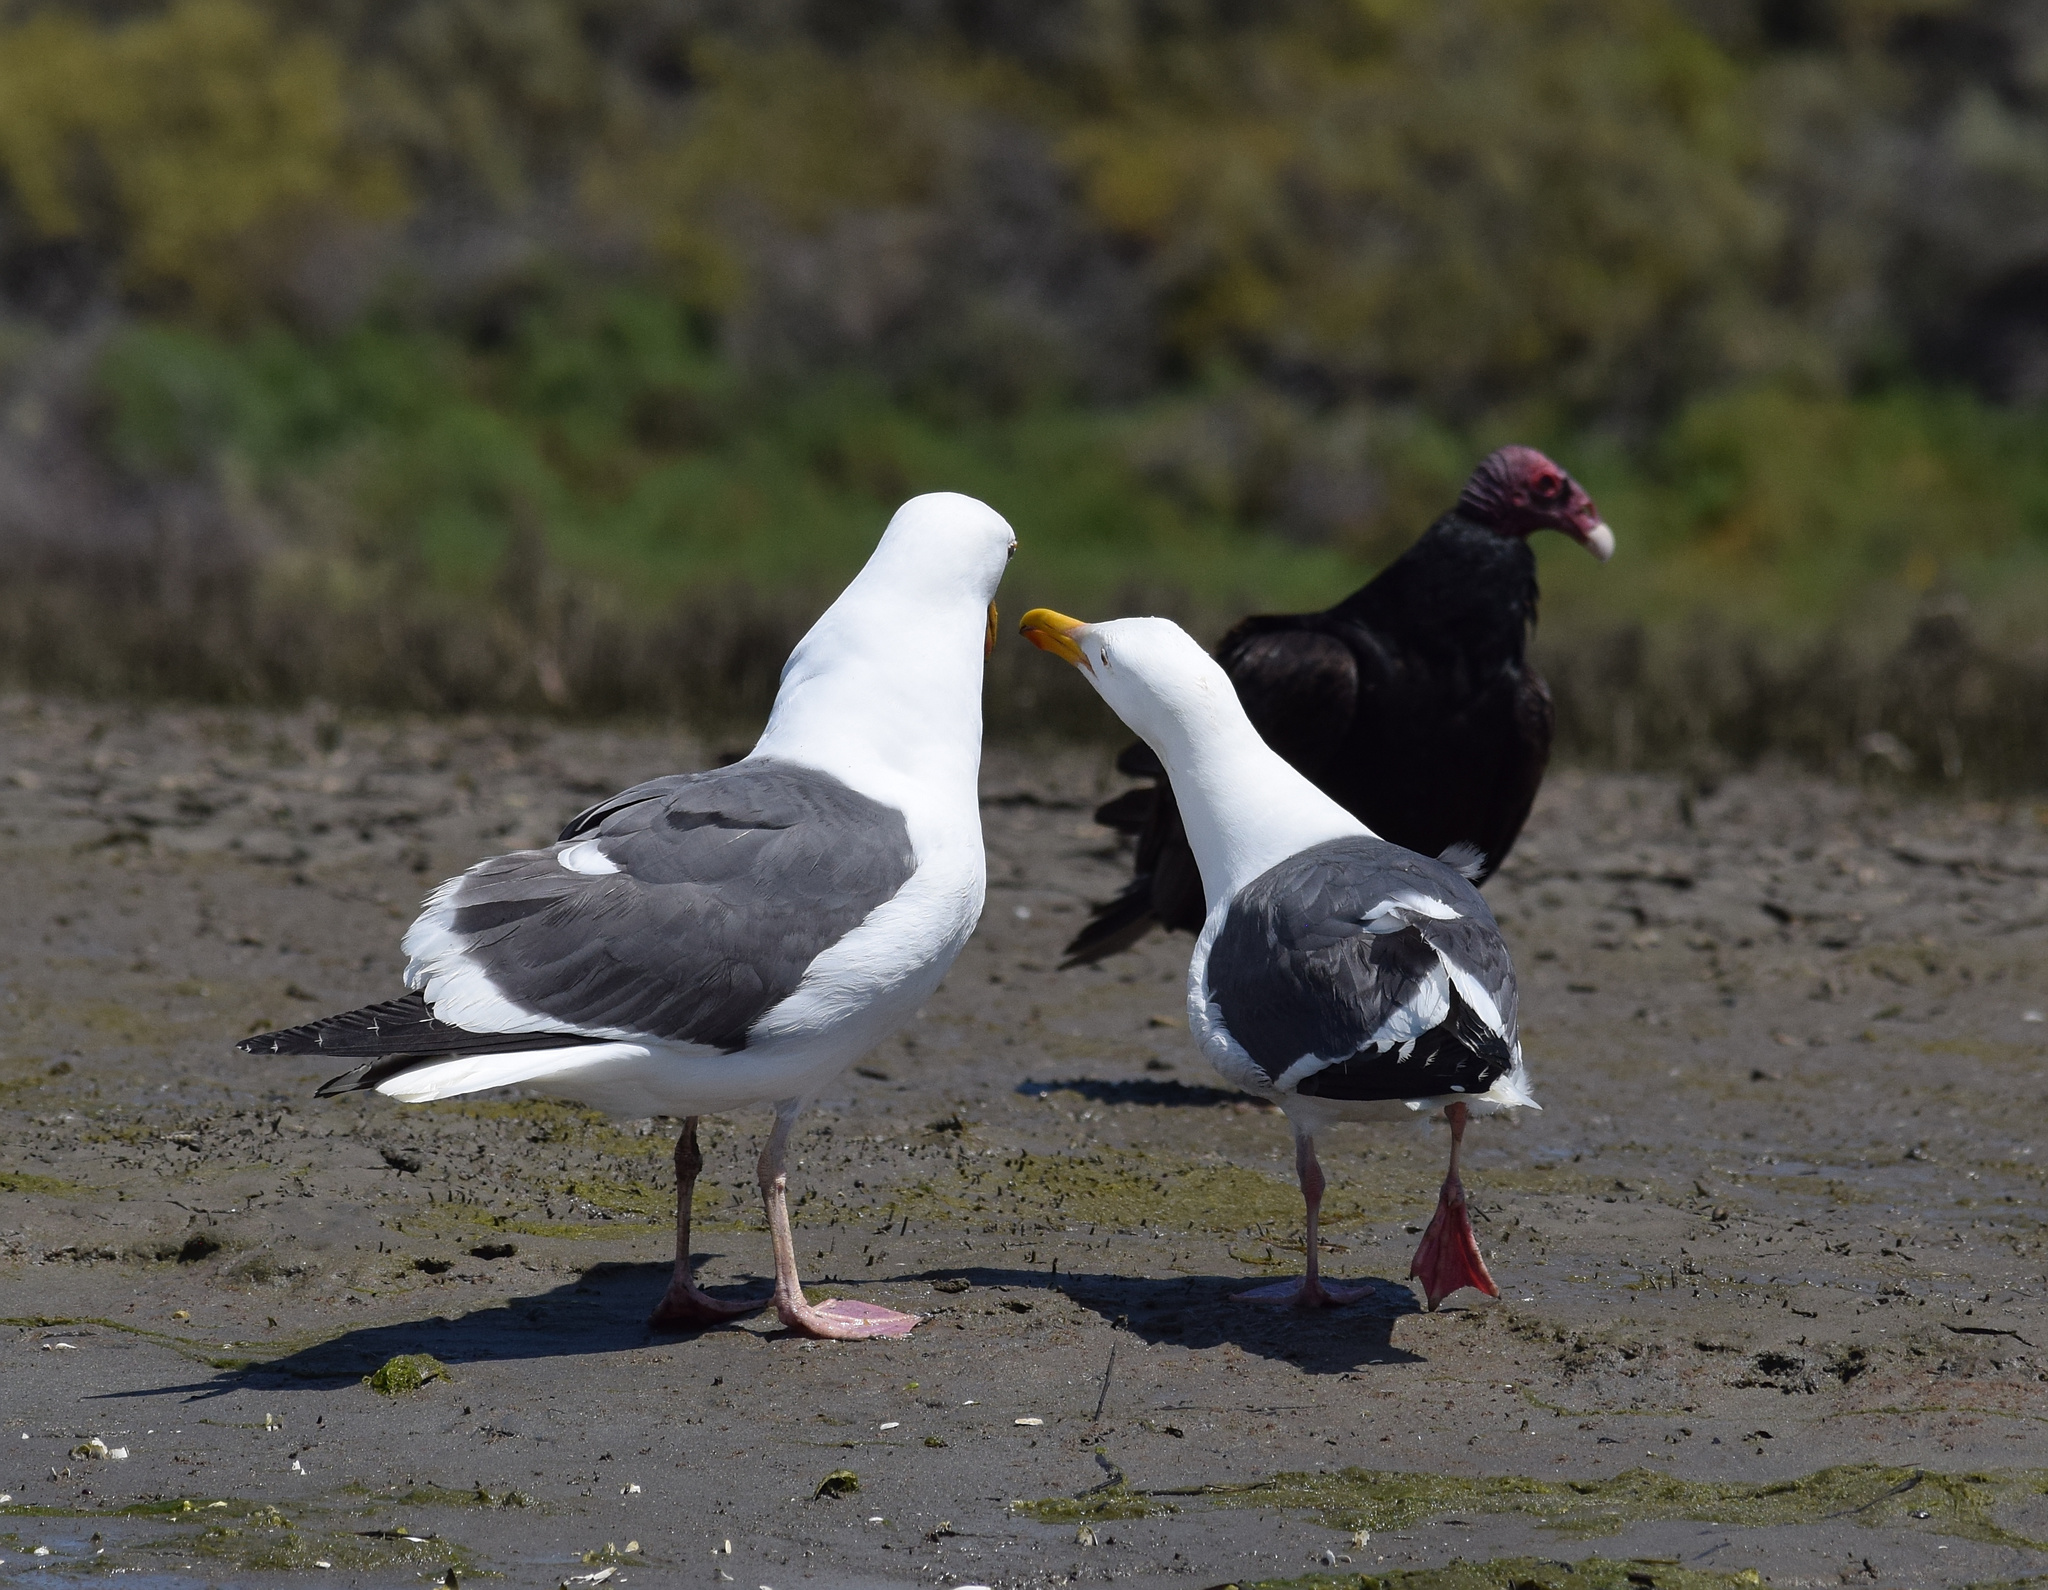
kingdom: Animalia
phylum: Chordata
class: Aves
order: Charadriiformes
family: Laridae
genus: Larus
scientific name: Larus occidentalis
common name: Western gull
